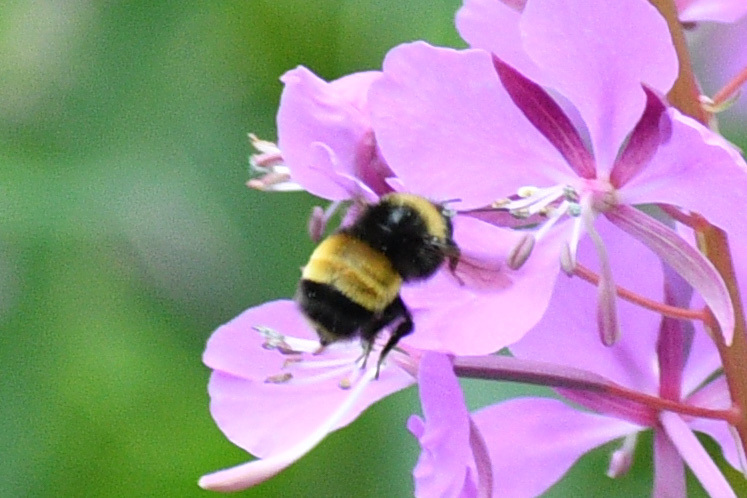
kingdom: Animalia
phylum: Arthropoda
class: Insecta
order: Hymenoptera
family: Apidae
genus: Bombus
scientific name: Bombus terricola
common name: Yellow-banded bumble bee
